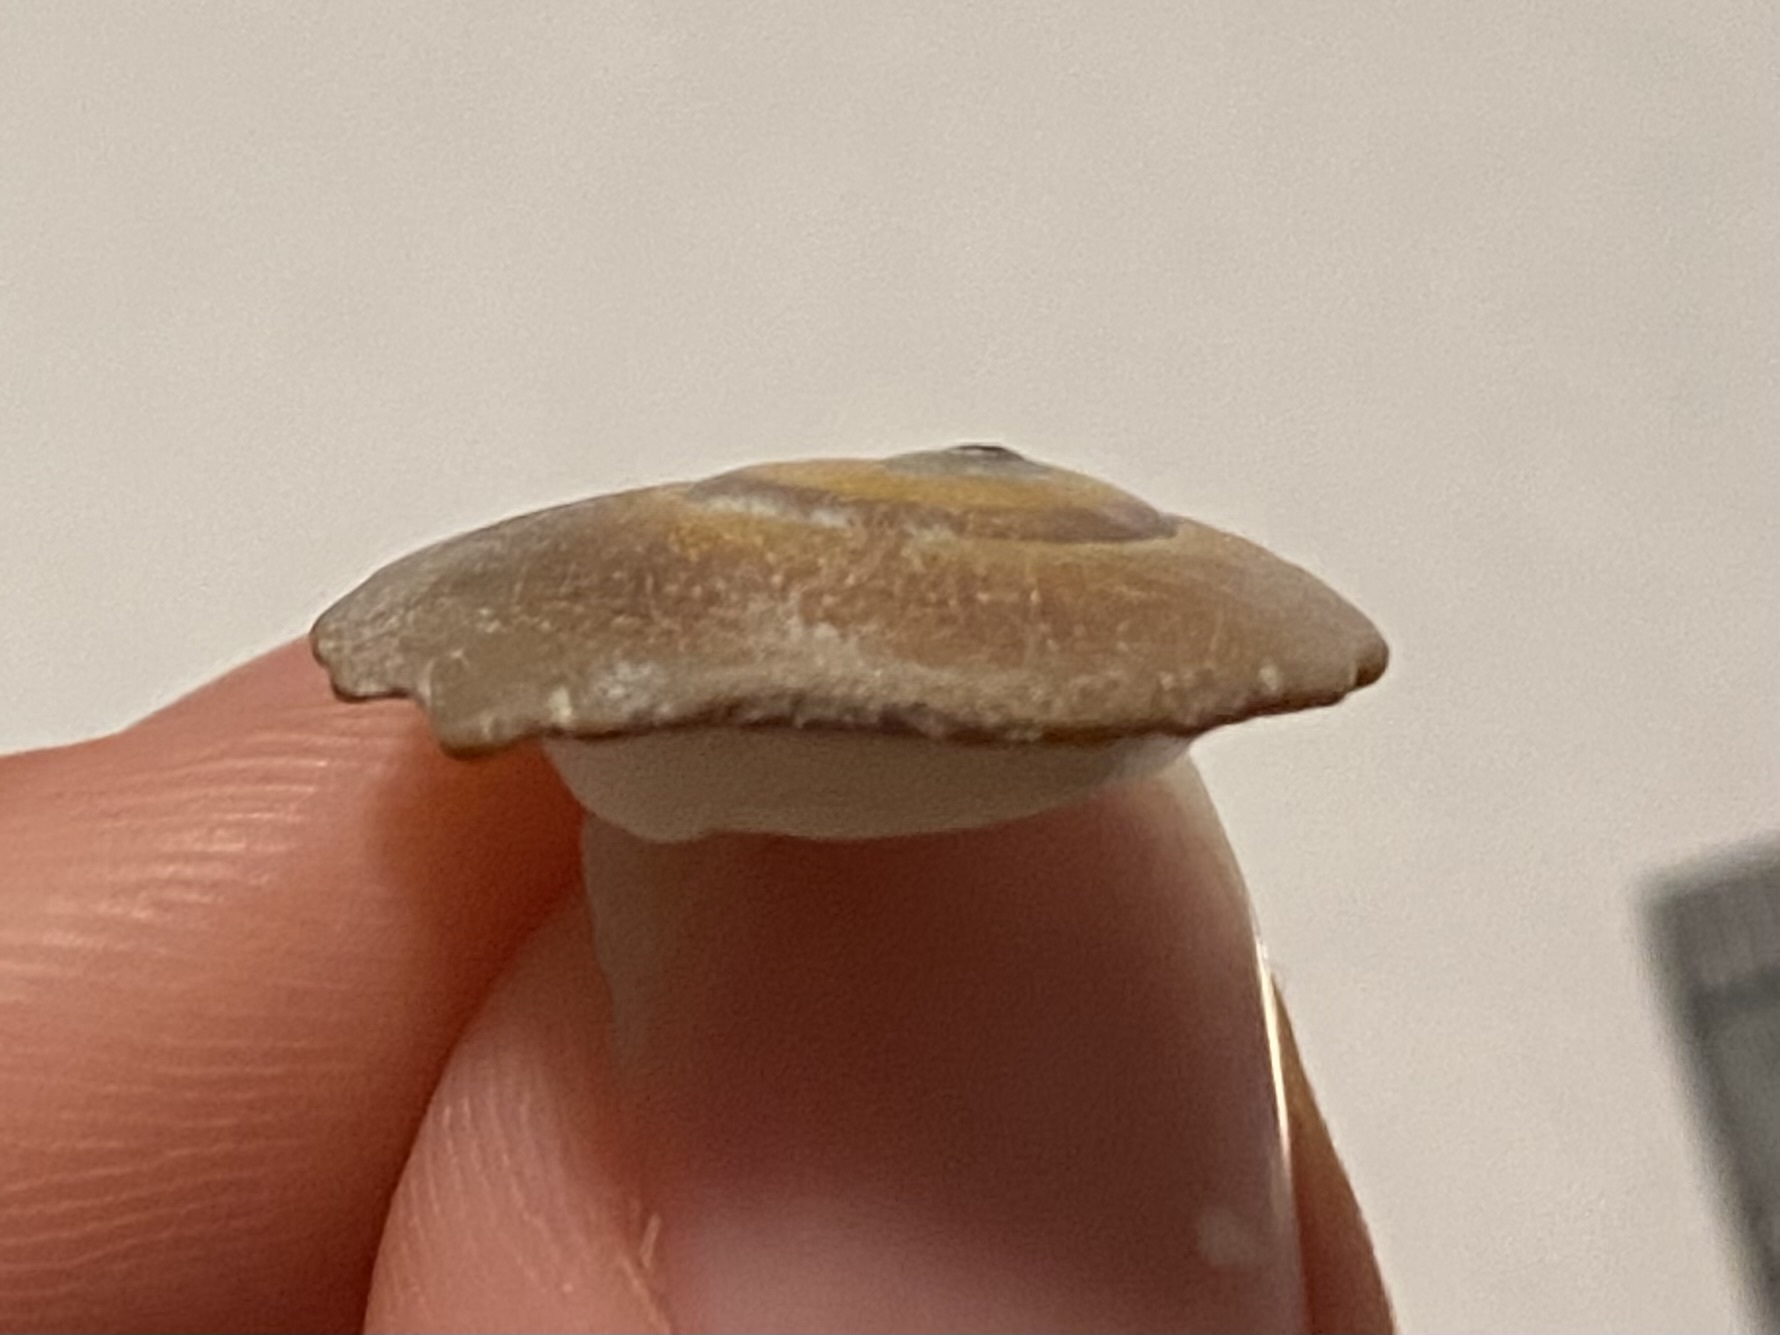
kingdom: Animalia
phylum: Mollusca
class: Gastropoda
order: Littorinimorpha
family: Naticidae
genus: Neverita
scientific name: Neverita duplicata
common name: Lobed moonsnail
